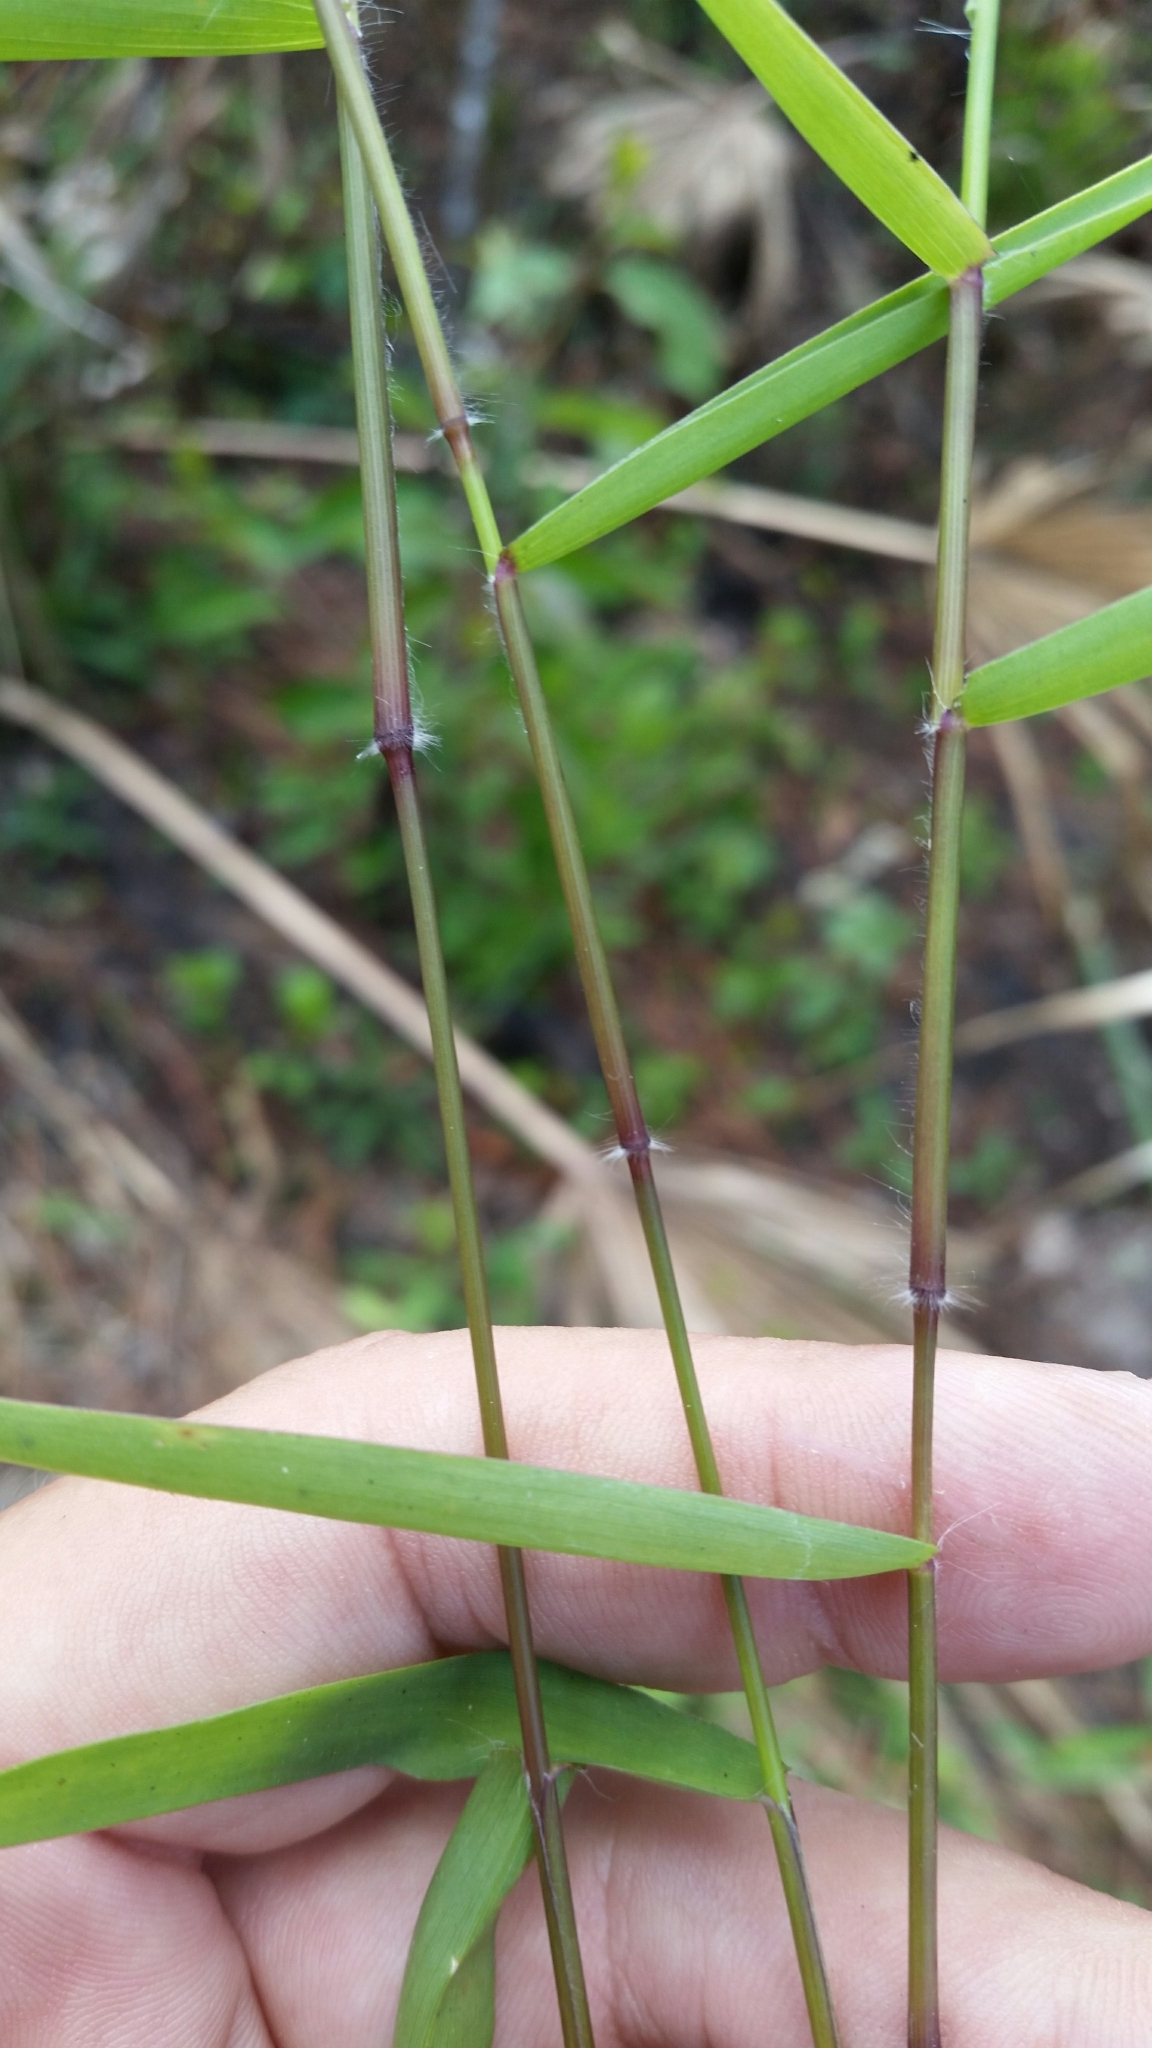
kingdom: Plantae
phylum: Tracheophyta
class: Liliopsida
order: Poales
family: Poaceae
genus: Dichanthelium
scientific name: Dichanthelium dichotomum
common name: Cypress panicgrass
